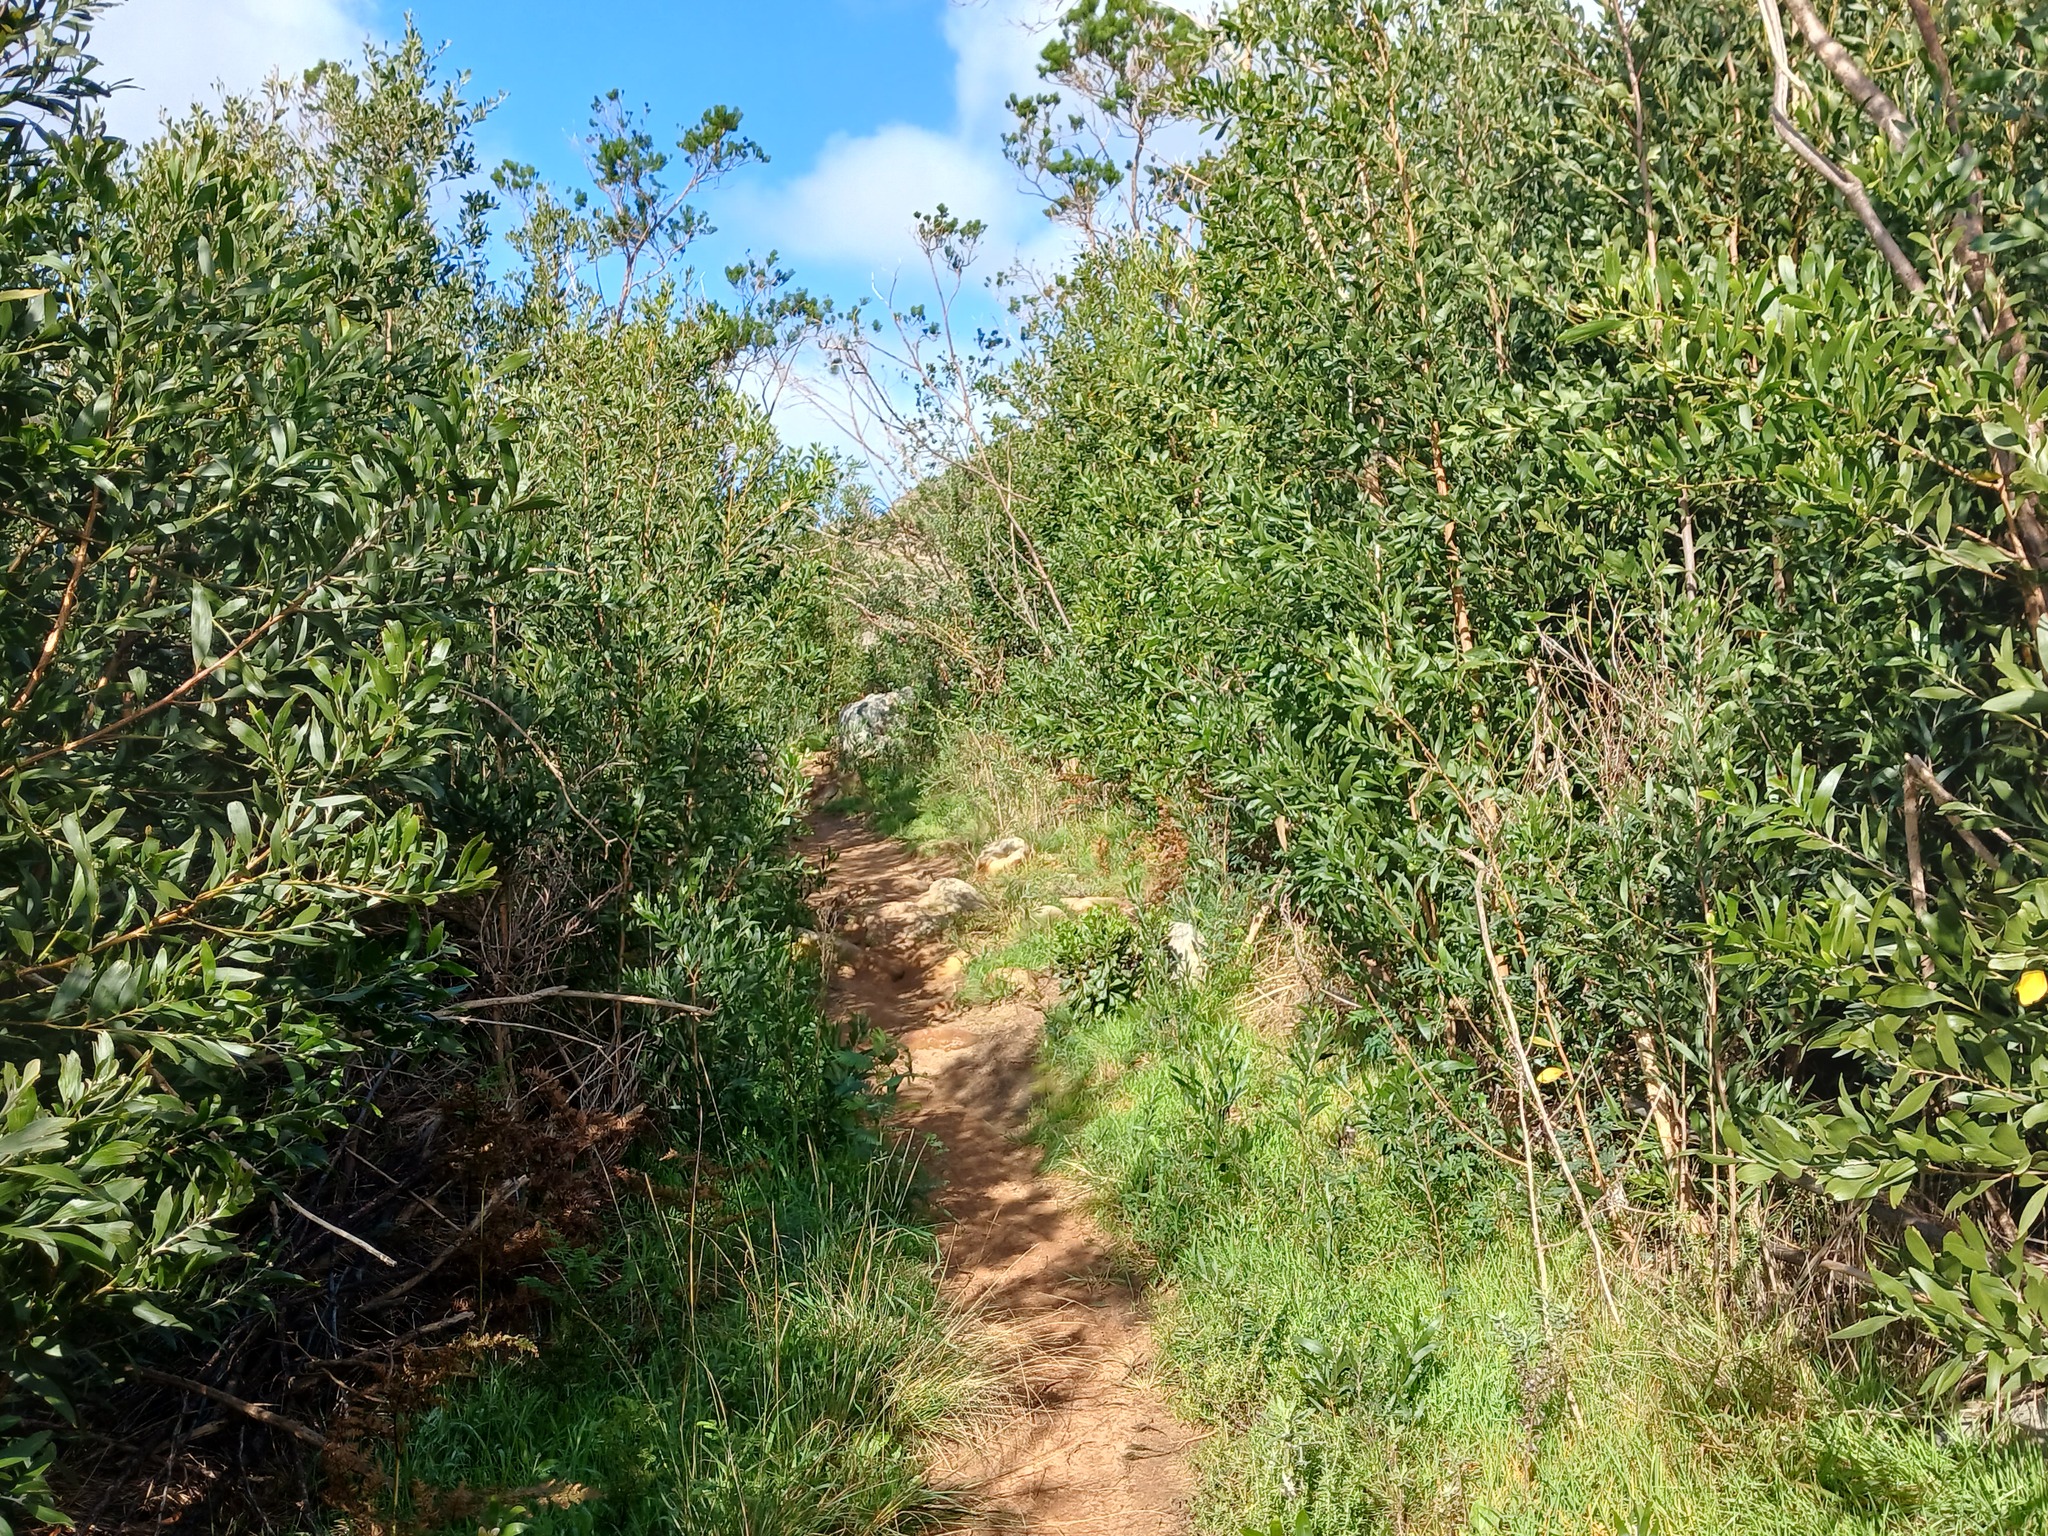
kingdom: Plantae
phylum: Tracheophyta
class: Magnoliopsida
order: Fabales
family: Fabaceae
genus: Acacia
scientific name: Acacia melanoxylon
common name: Blackwood
